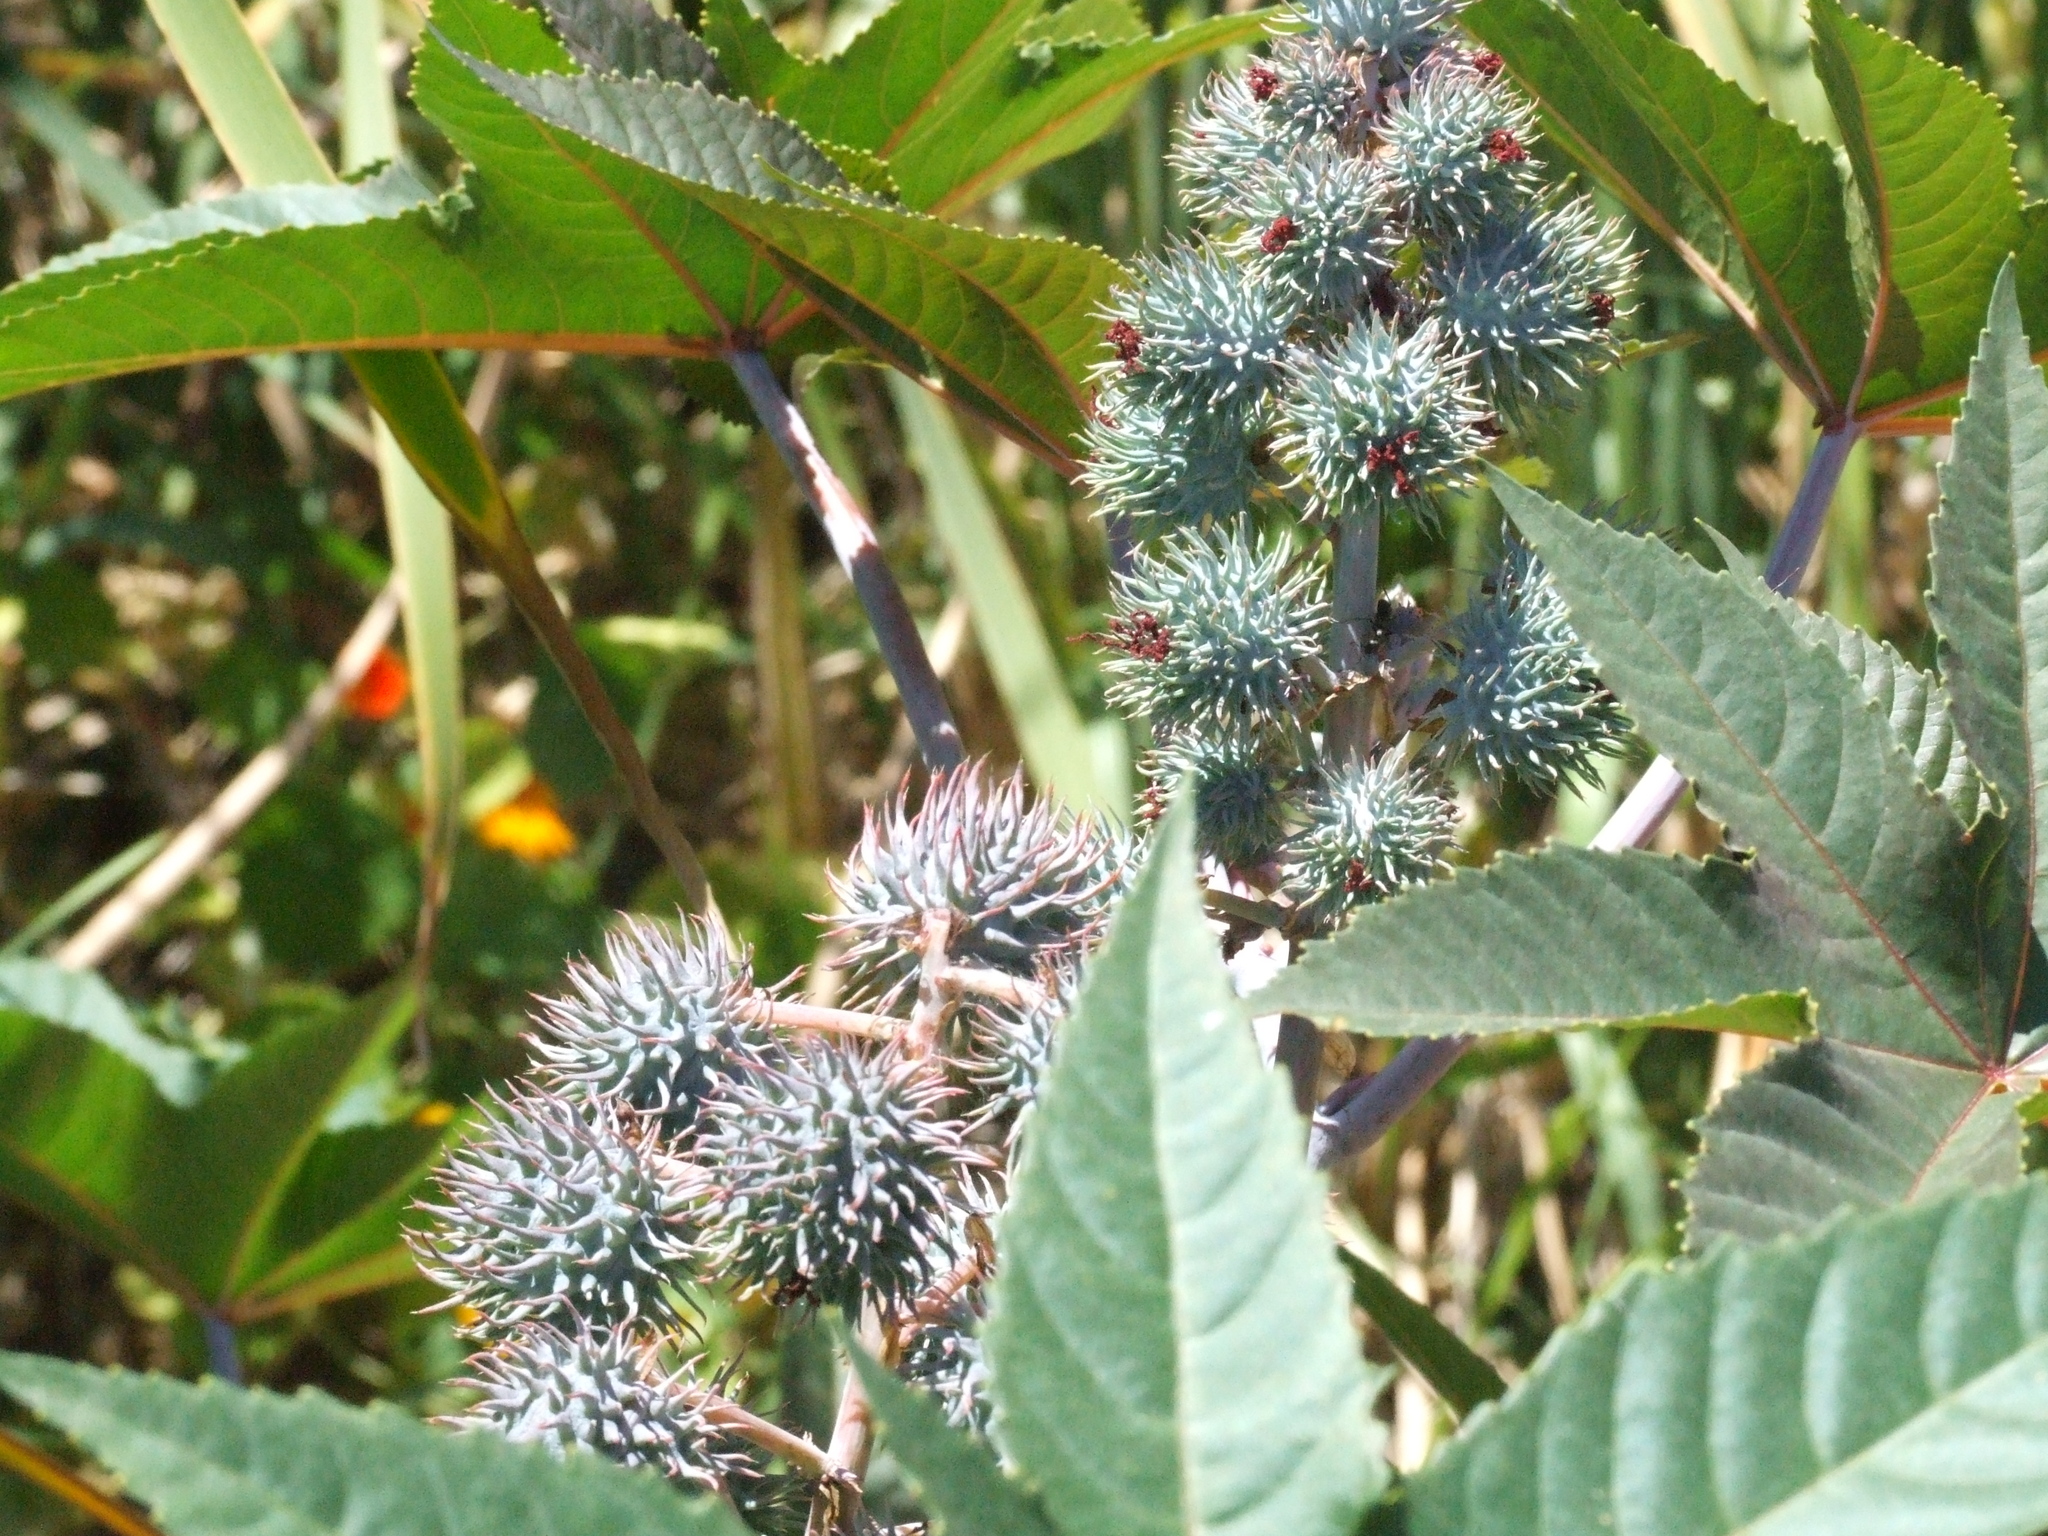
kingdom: Plantae
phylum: Tracheophyta
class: Magnoliopsida
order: Malpighiales
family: Euphorbiaceae
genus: Ricinus
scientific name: Ricinus communis
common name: Castor-oil-plant
